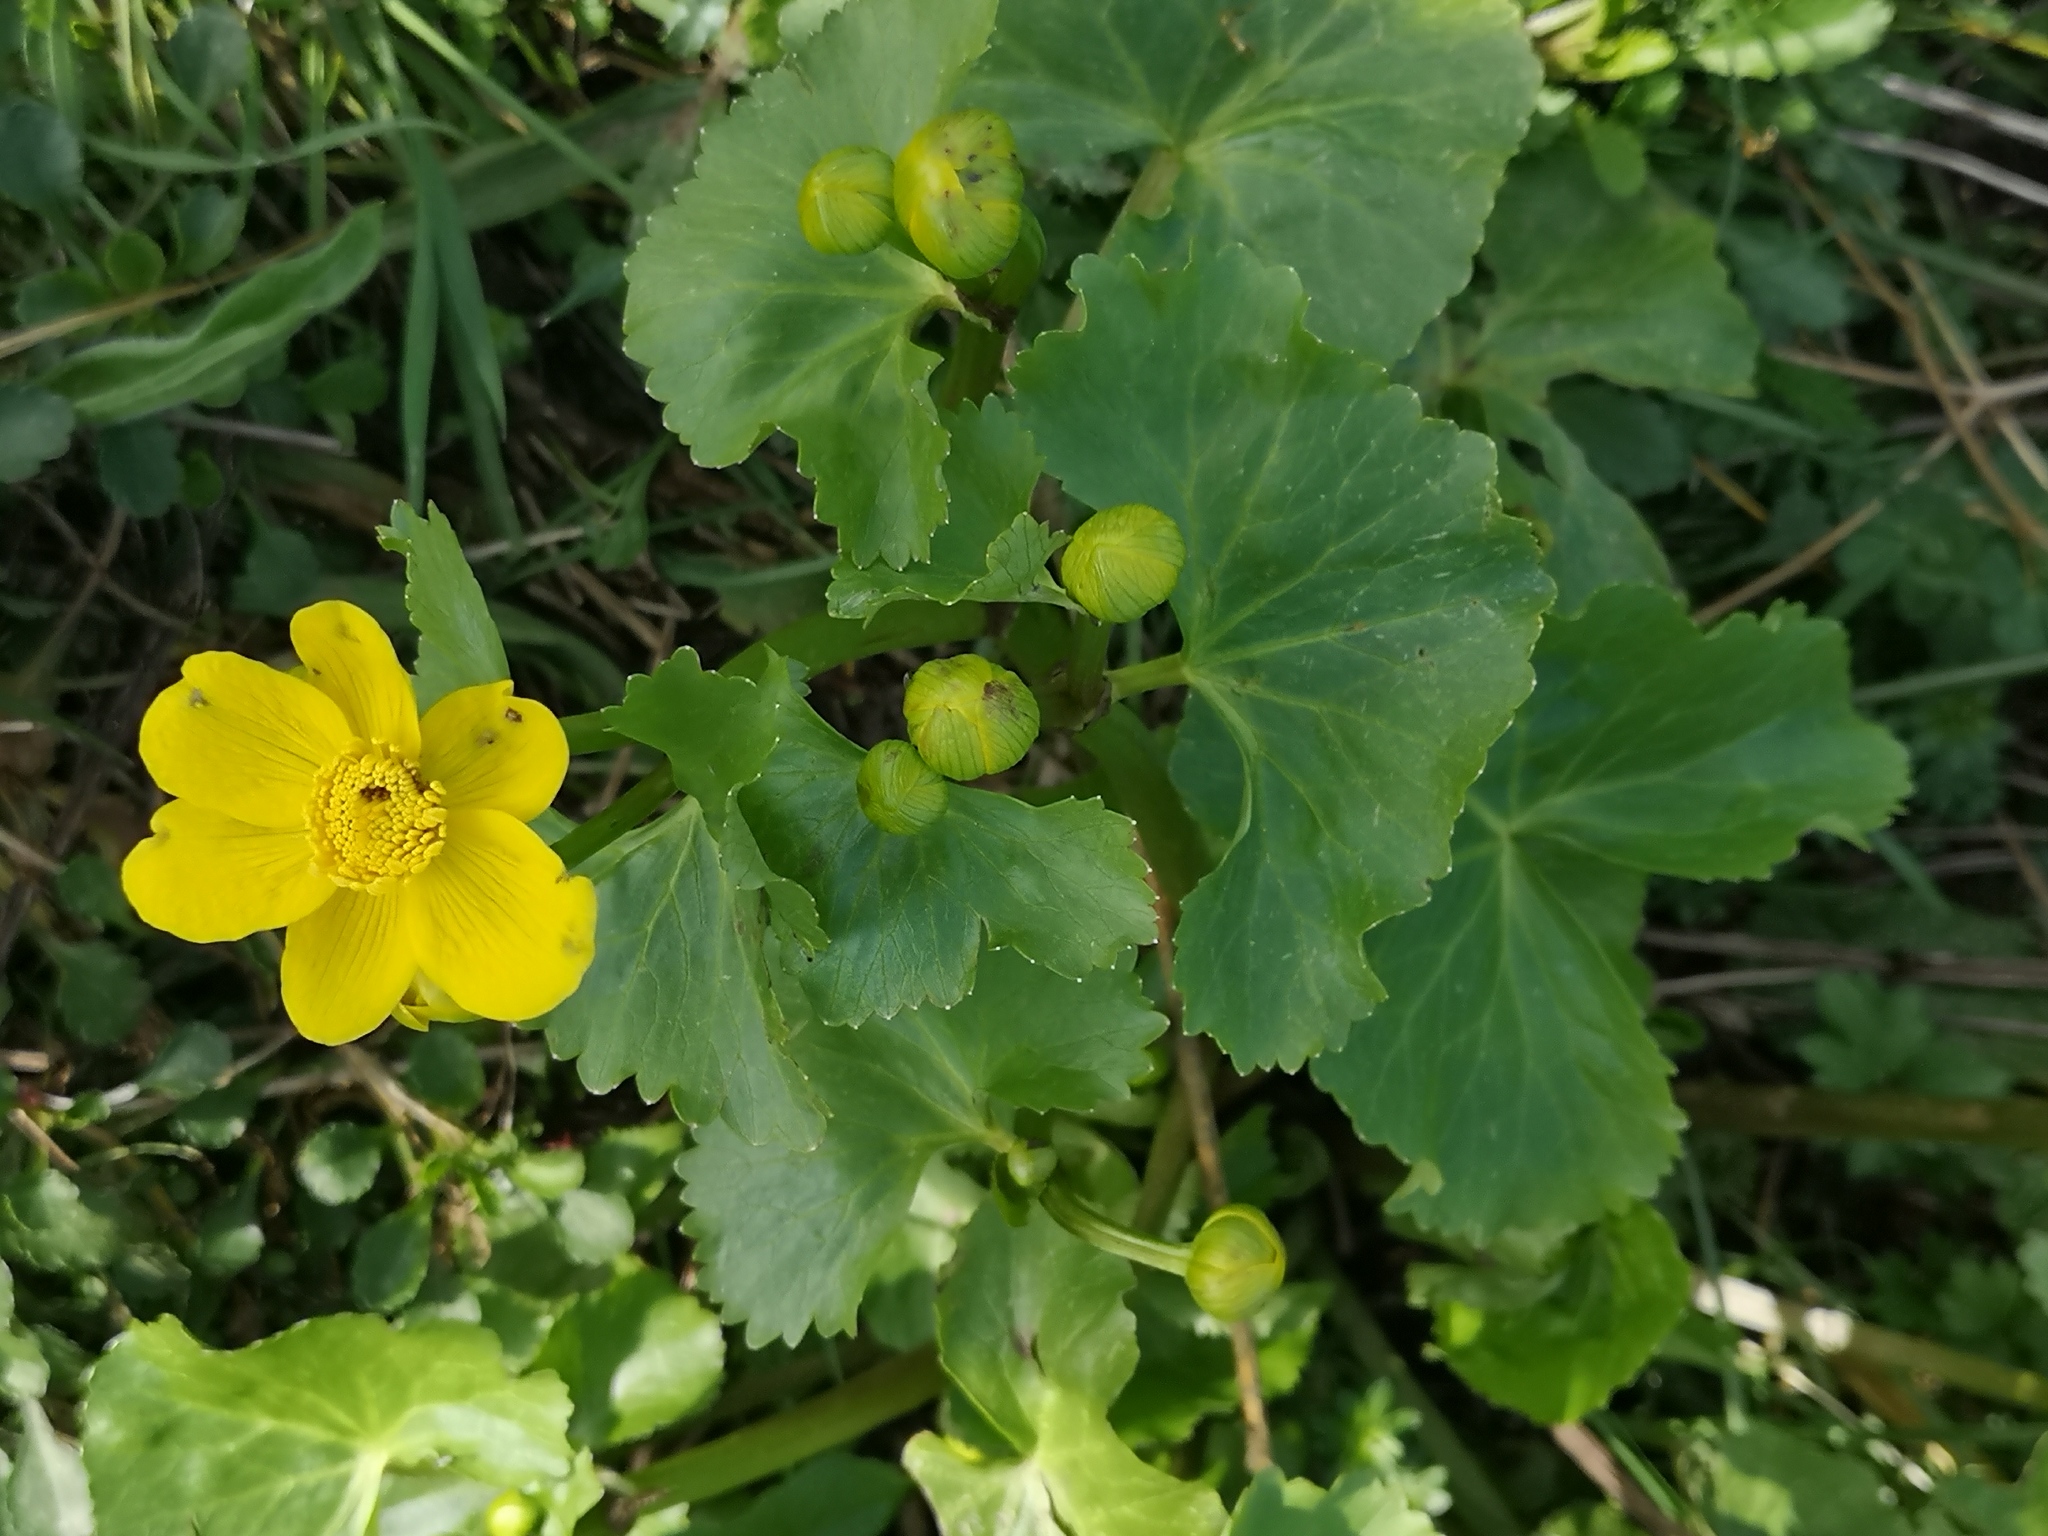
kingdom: Plantae
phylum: Tracheophyta
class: Magnoliopsida
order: Ranunculales
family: Ranunculaceae
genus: Caltha
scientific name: Caltha palustris
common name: Marsh marigold
